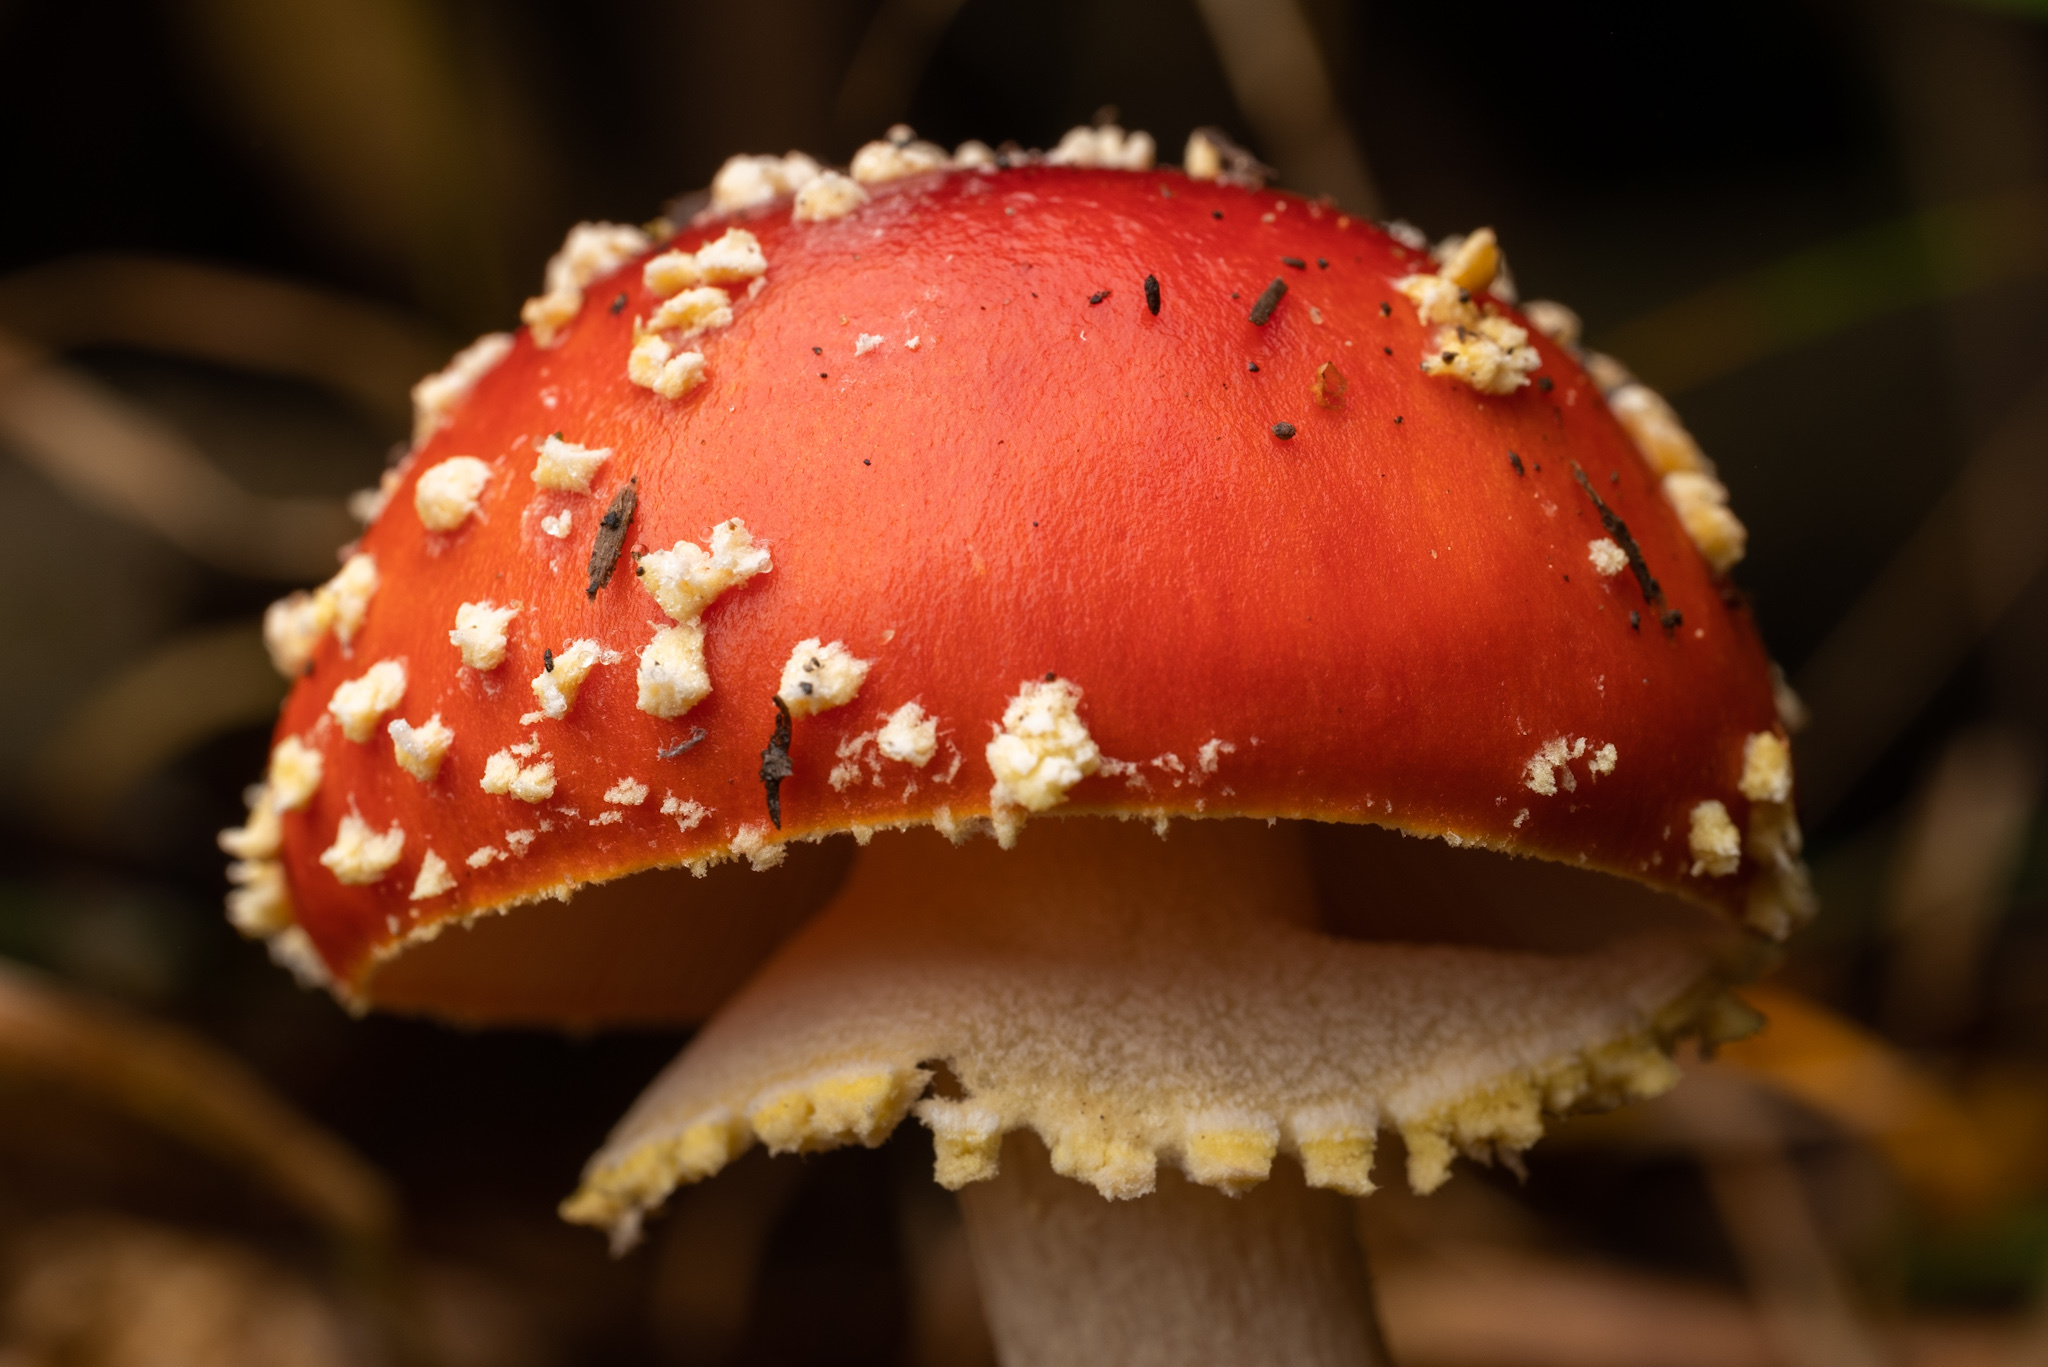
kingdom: Fungi
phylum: Basidiomycota
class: Agaricomycetes
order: Agaricales
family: Amanitaceae
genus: Amanita
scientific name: Amanita muscaria
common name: Fly agaric
